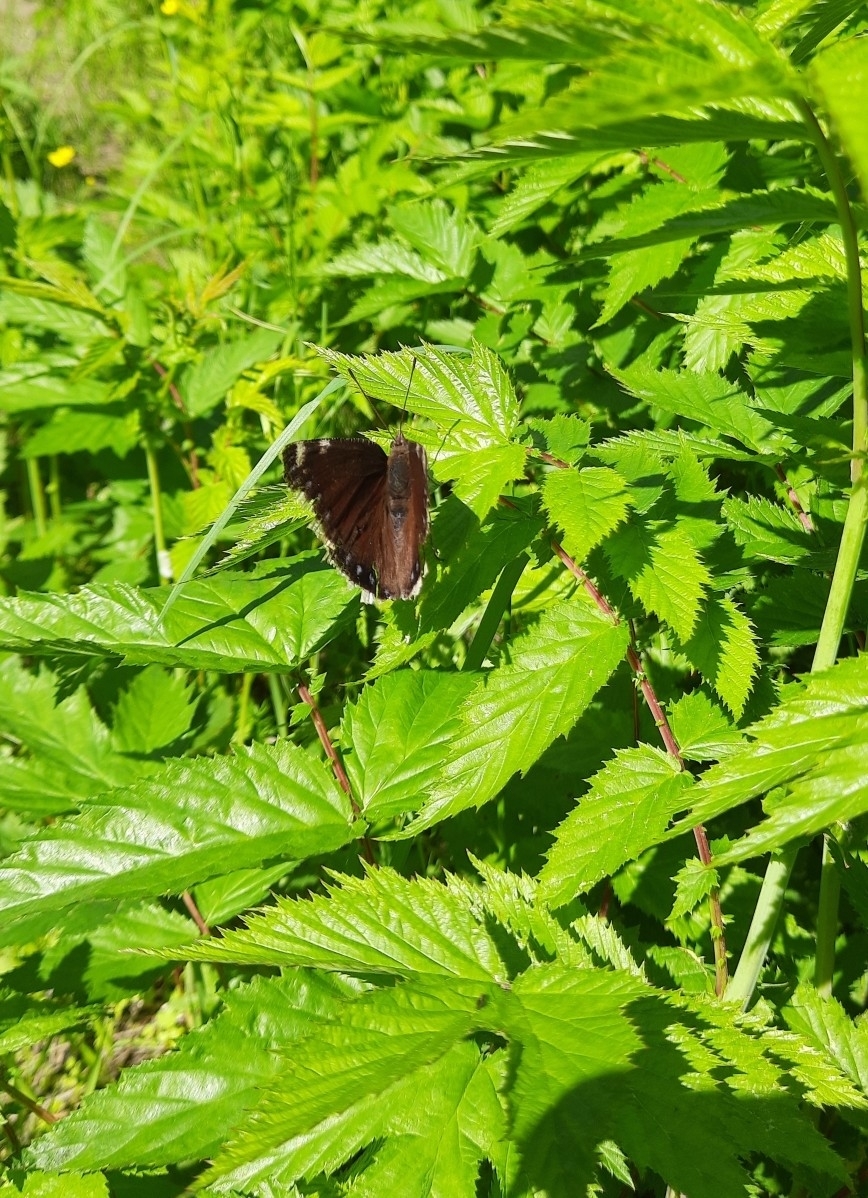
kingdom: Animalia
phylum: Arthropoda
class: Insecta
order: Lepidoptera
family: Nymphalidae
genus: Nymphalis
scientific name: Nymphalis antiopa
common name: Camberwell beauty
